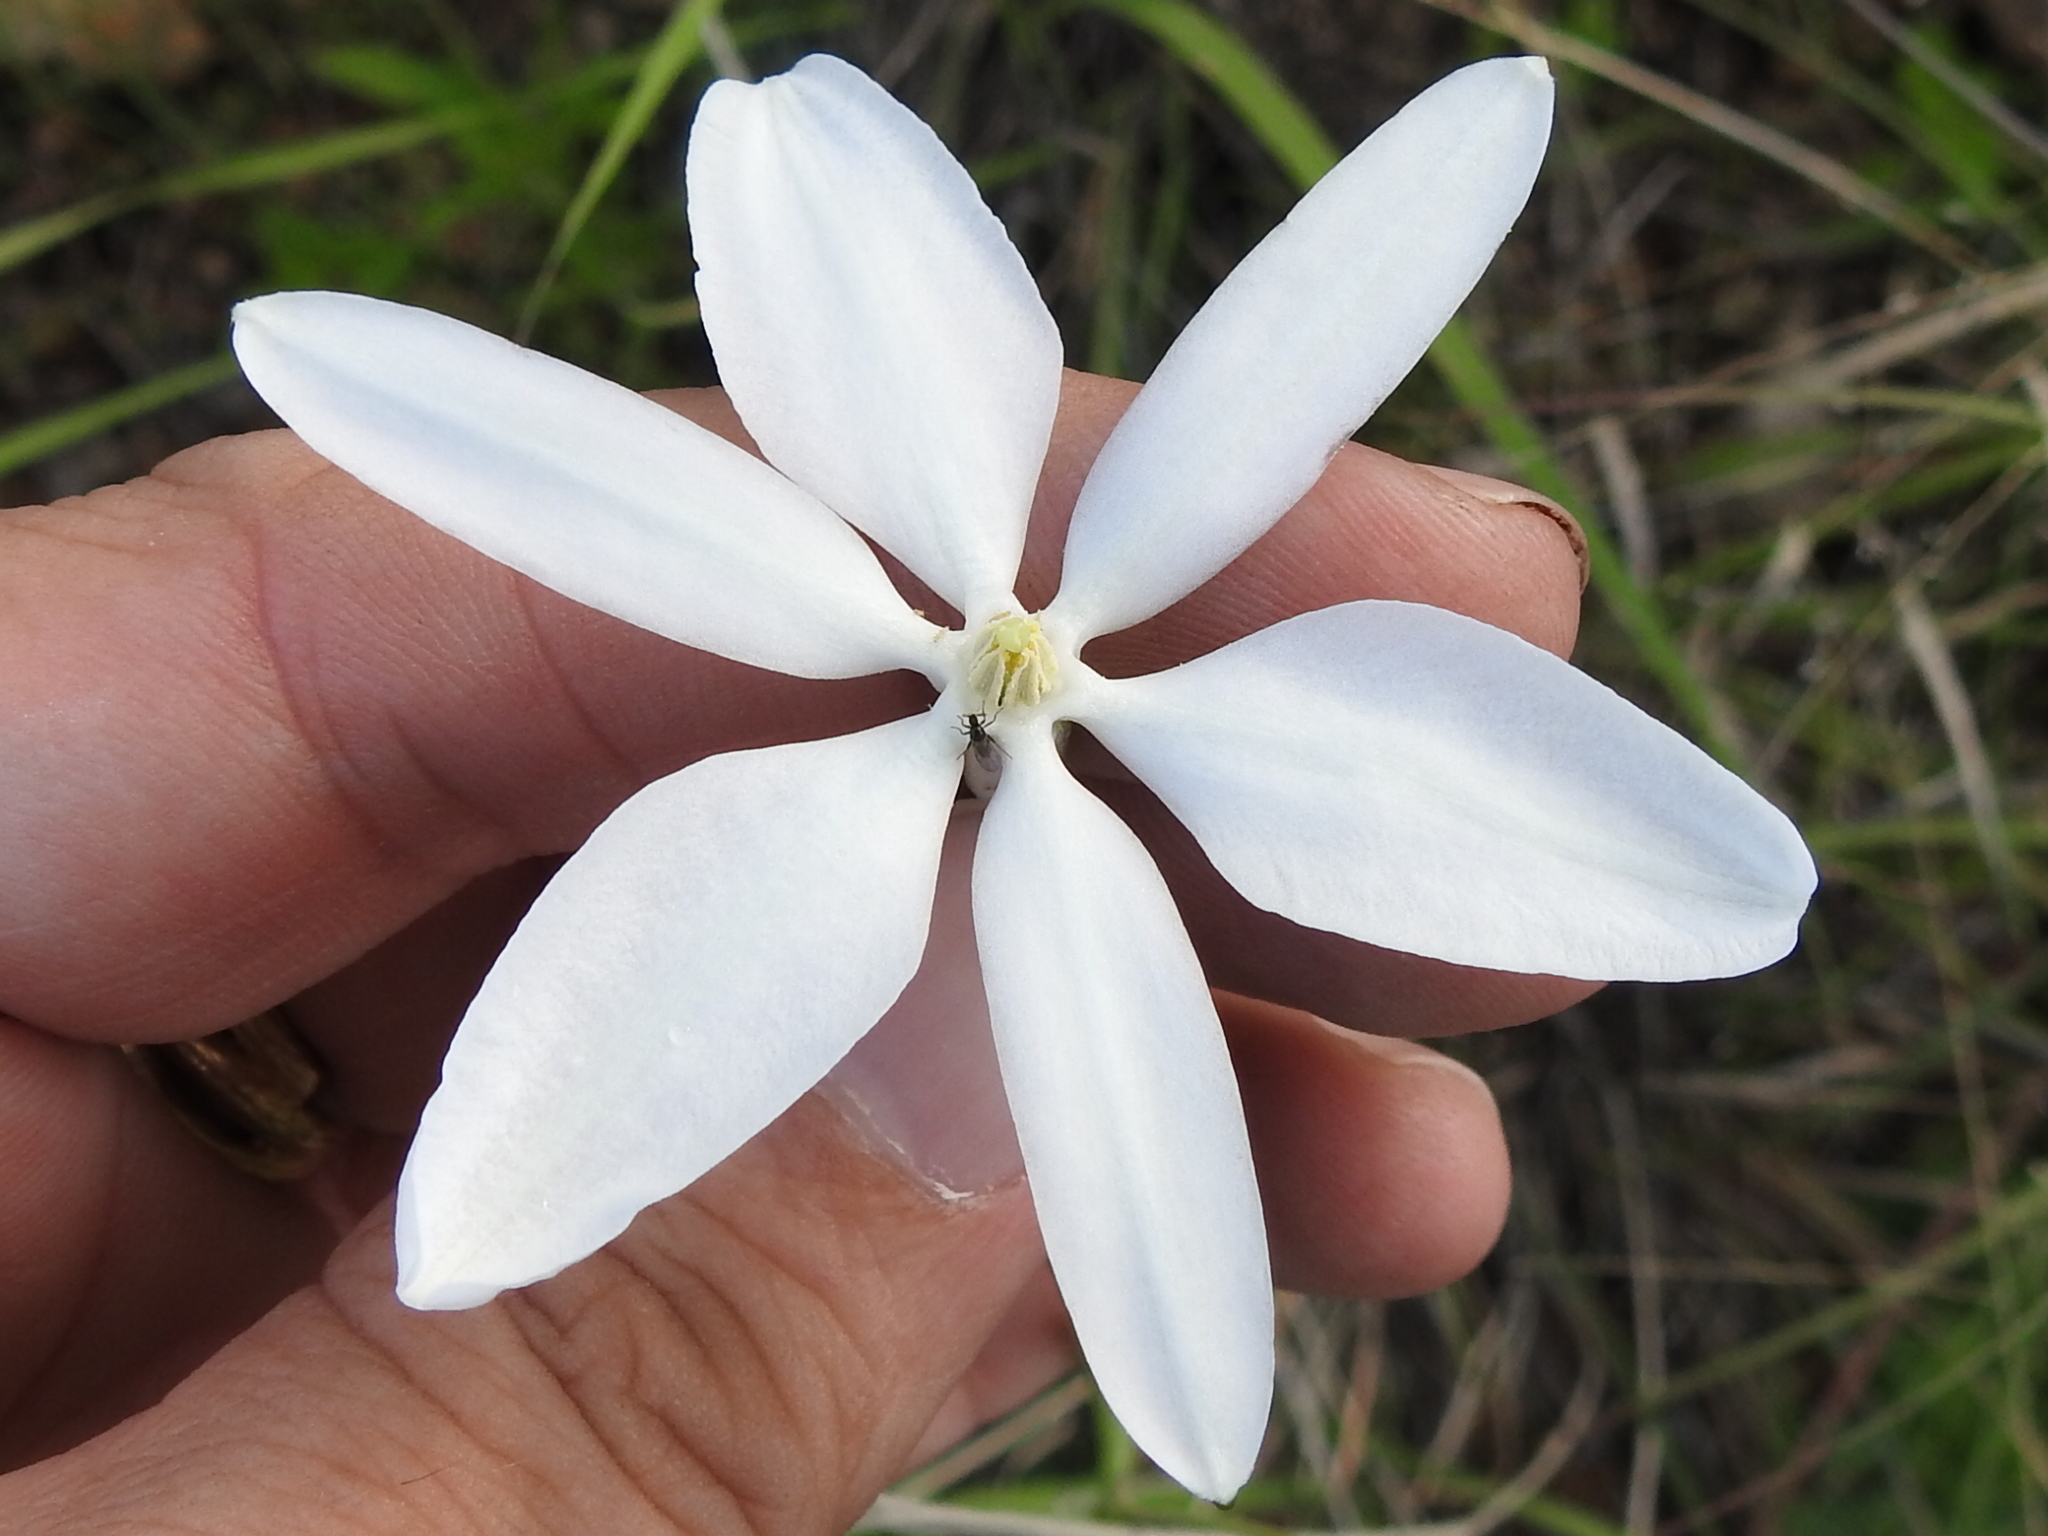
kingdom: Plantae
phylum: Tracheophyta
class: Liliopsida
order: Asparagales
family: Asparagaceae
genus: Milla
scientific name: Milla biflora
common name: Mexican-star
